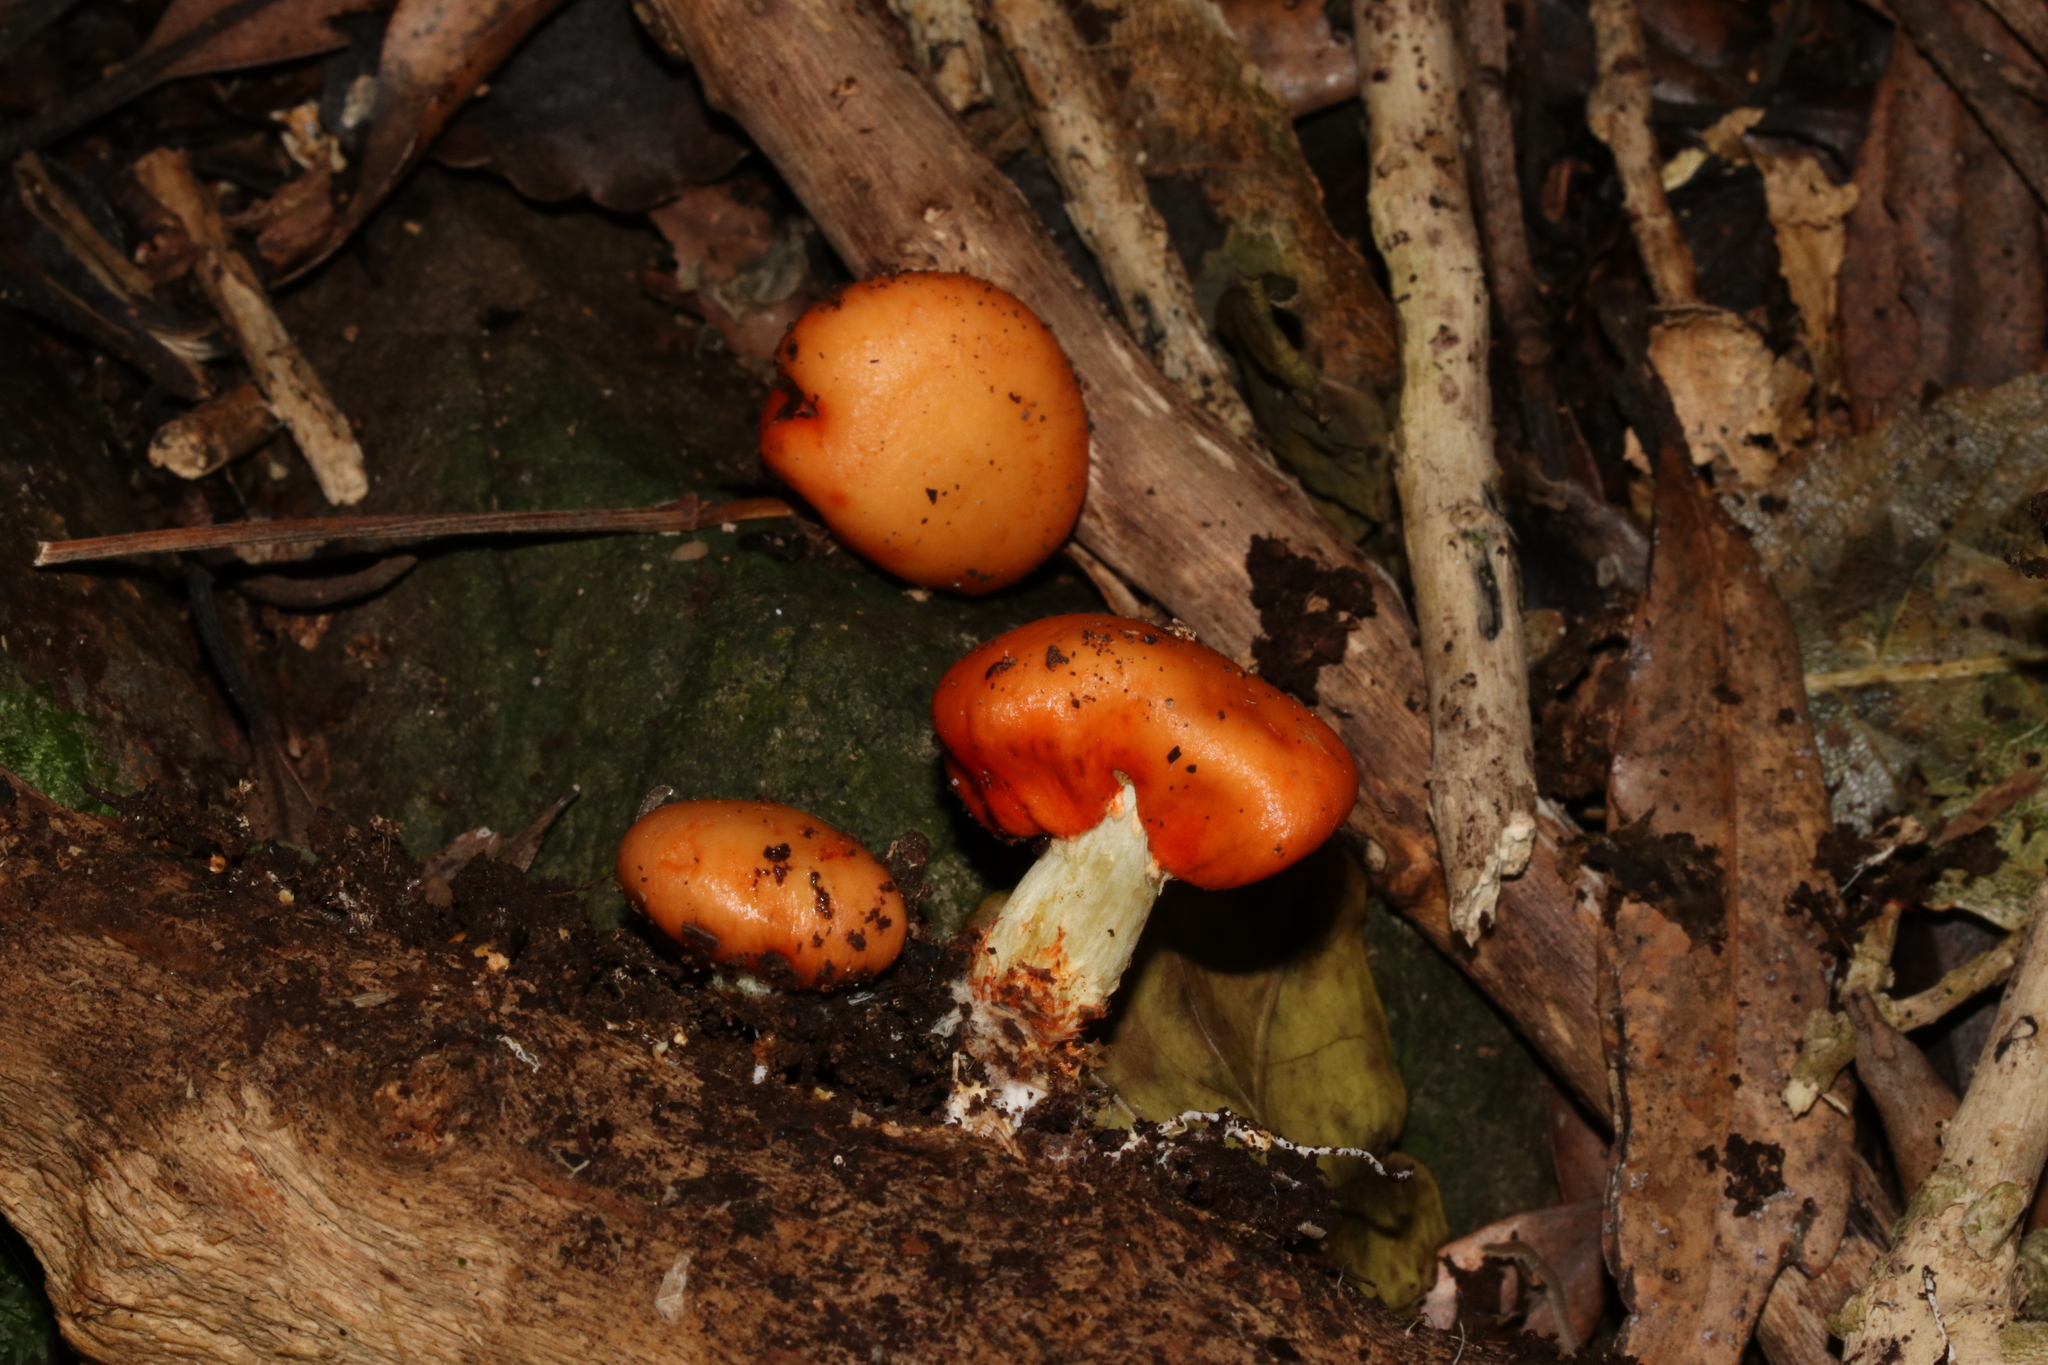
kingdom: Fungi
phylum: Basidiomycota
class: Agaricomycetes
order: Agaricales
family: Strophariaceae
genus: Leratiomyces
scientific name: Leratiomyces erythrocephalus
